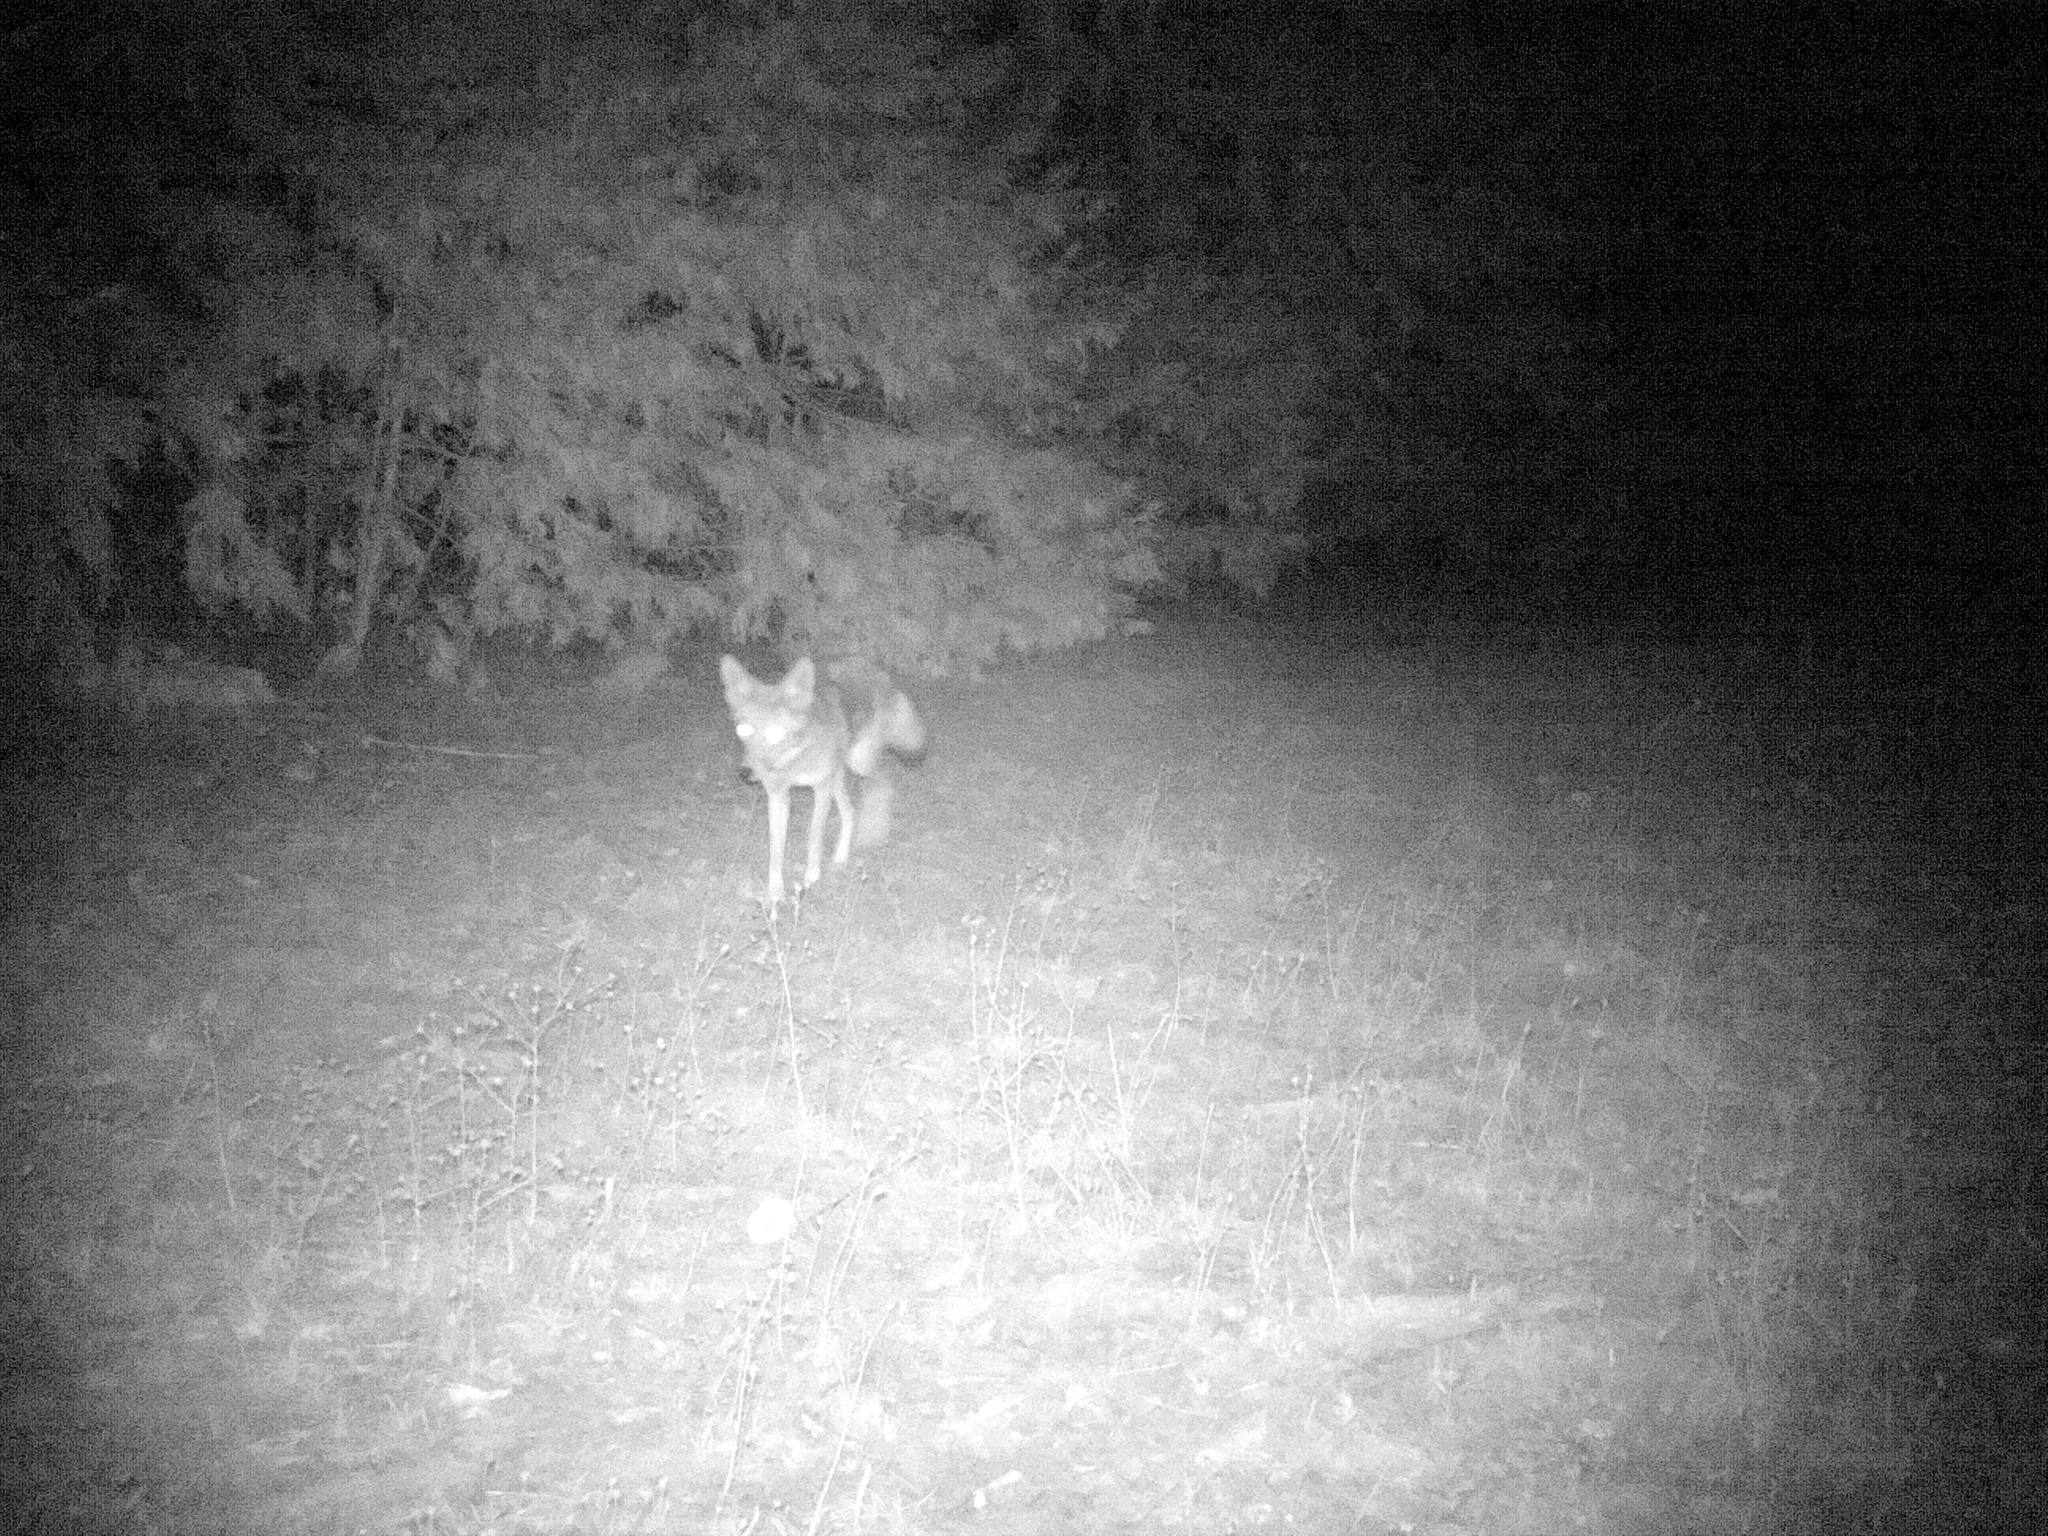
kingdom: Animalia
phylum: Chordata
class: Mammalia
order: Carnivora
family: Canidae
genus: Canis
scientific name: Canis latrans
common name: Coyote
